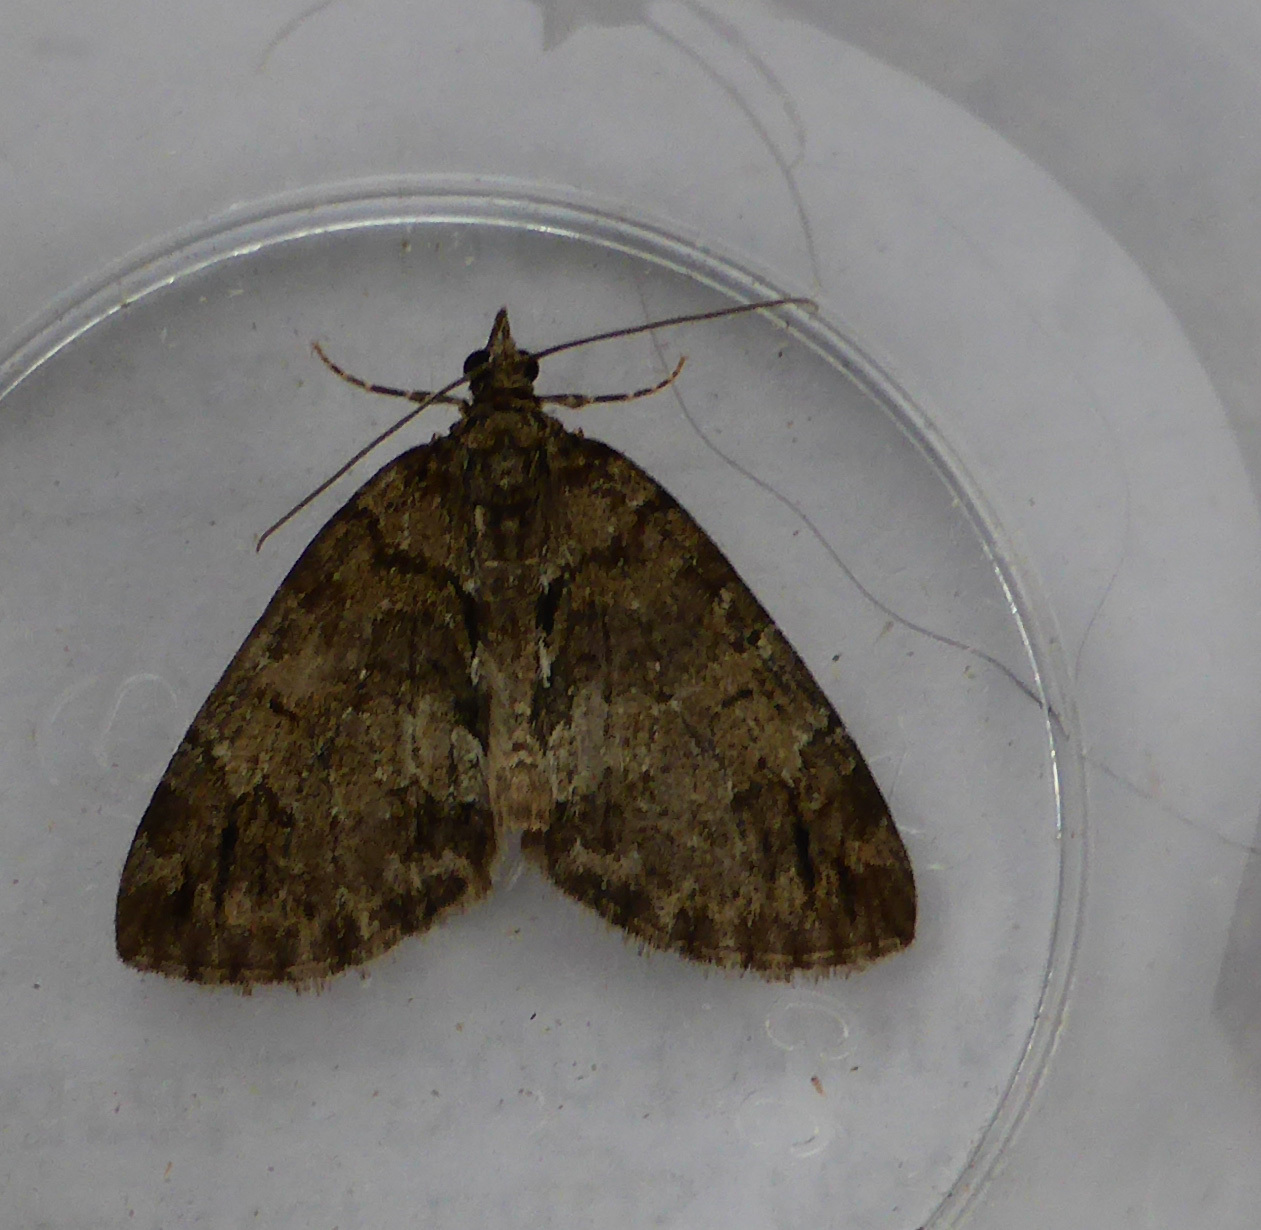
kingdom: Animalia
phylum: Arthropoda
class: Insecta
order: Lepidoptera
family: Geometridae
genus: Hydriomena
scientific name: Hydriomena impluviata
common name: May highflyer
